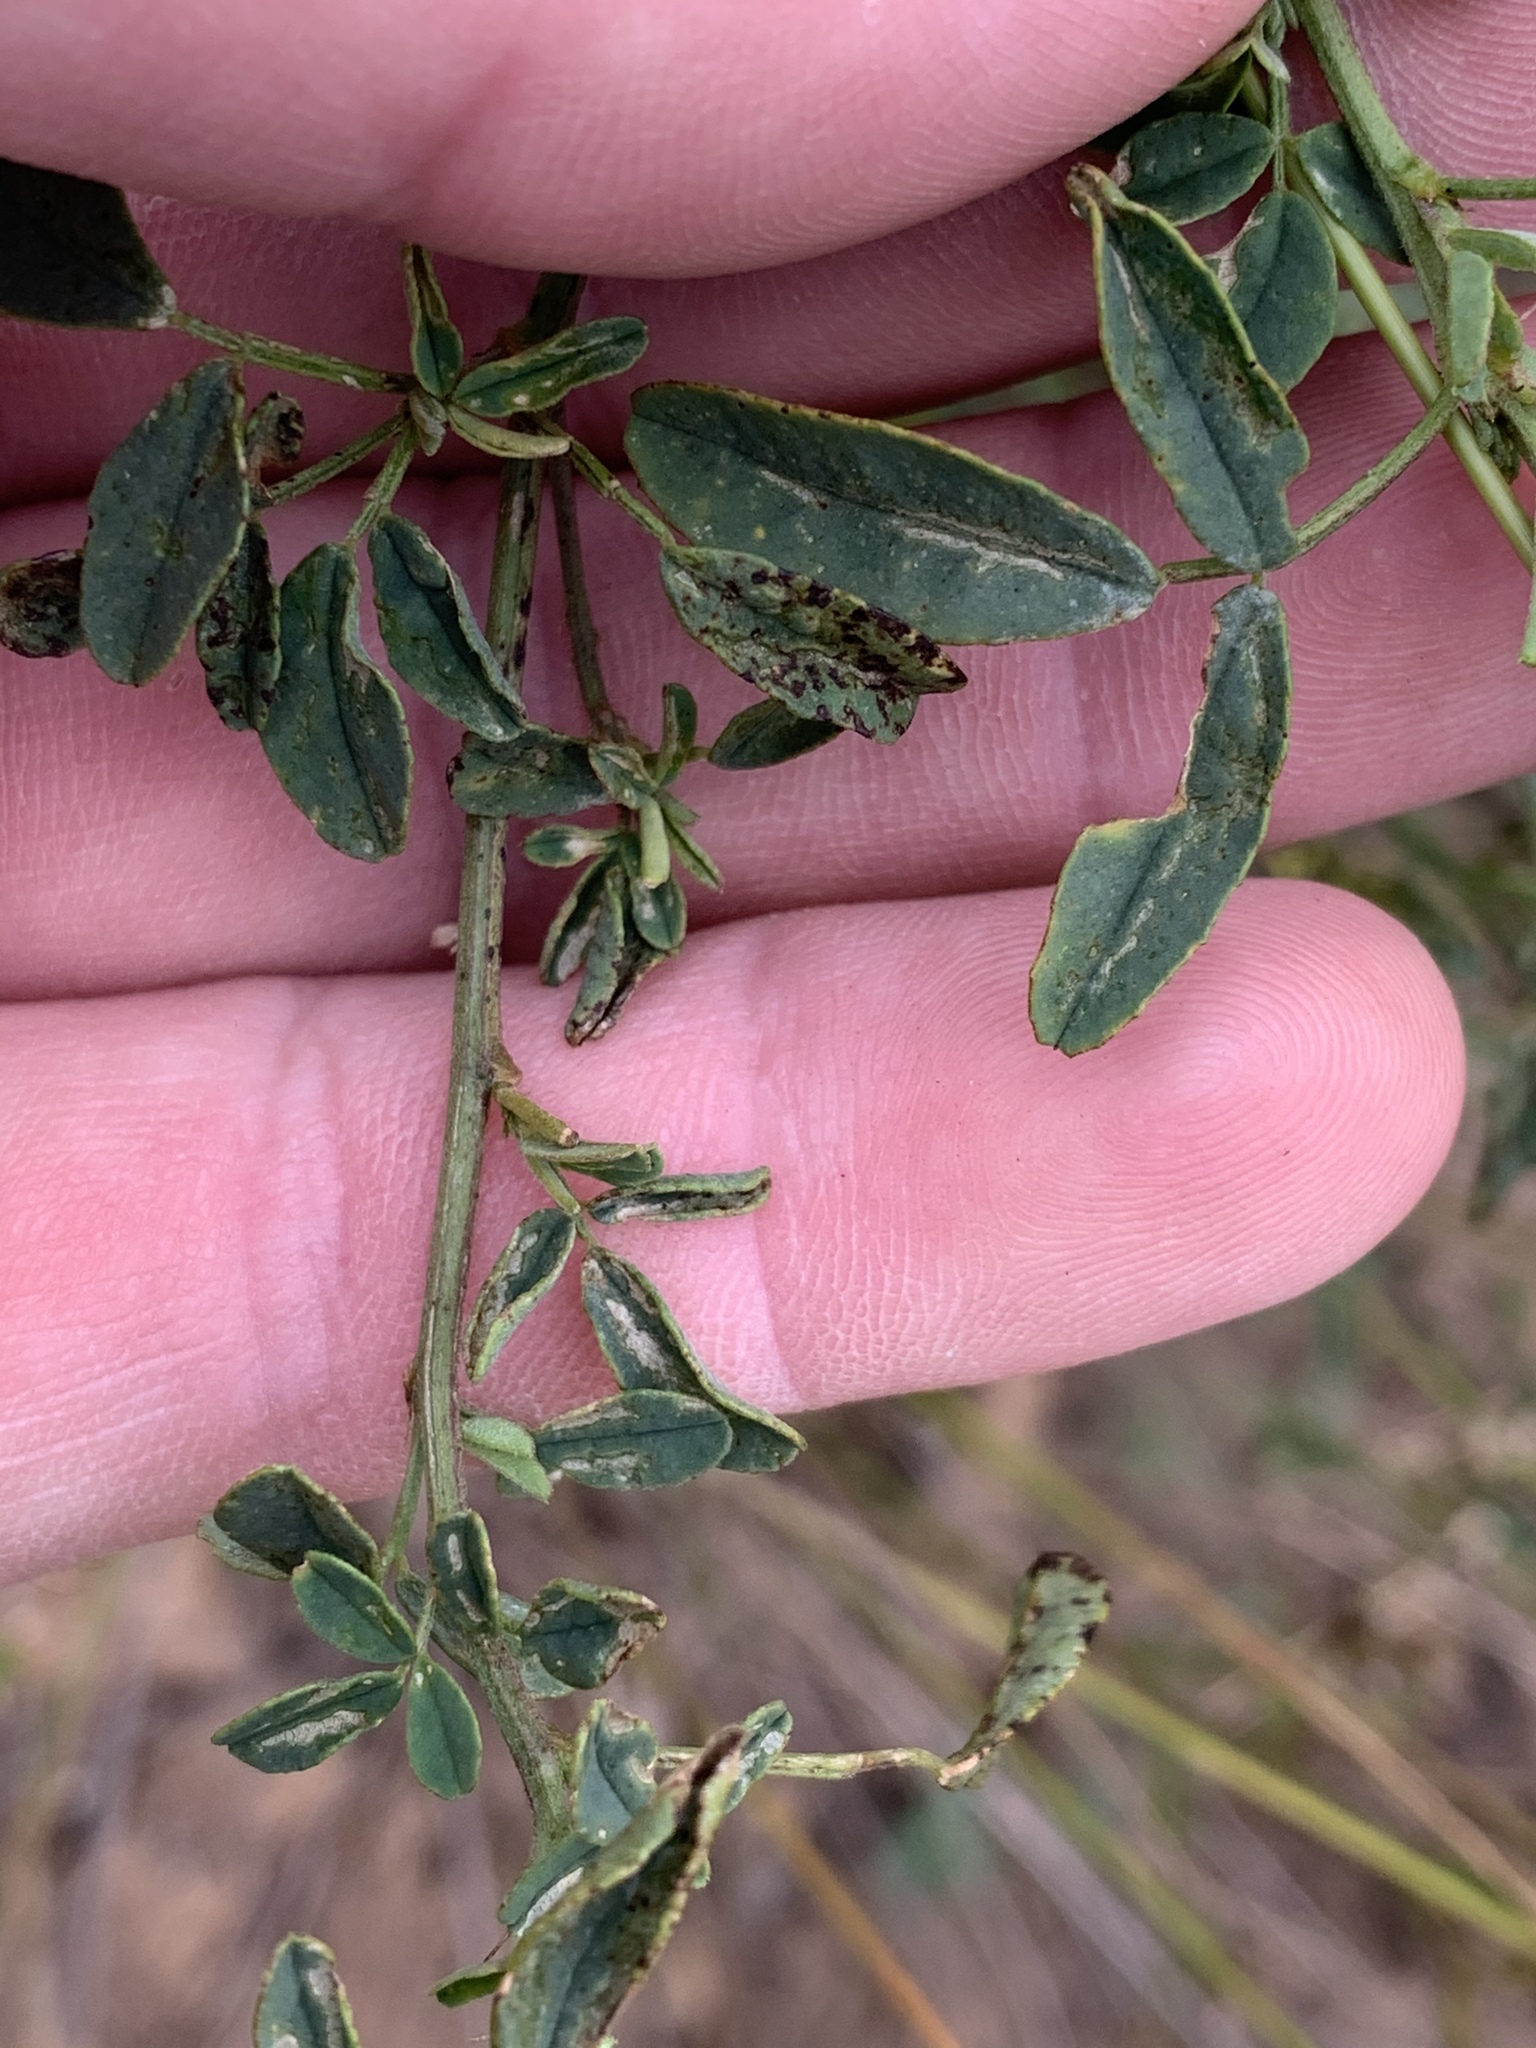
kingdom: Plantae
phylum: Tracheophyta
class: Magnoliopsida
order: Fabales
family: Fabaceae
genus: Melilotus
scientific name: Melilotus albus
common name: White melilot
